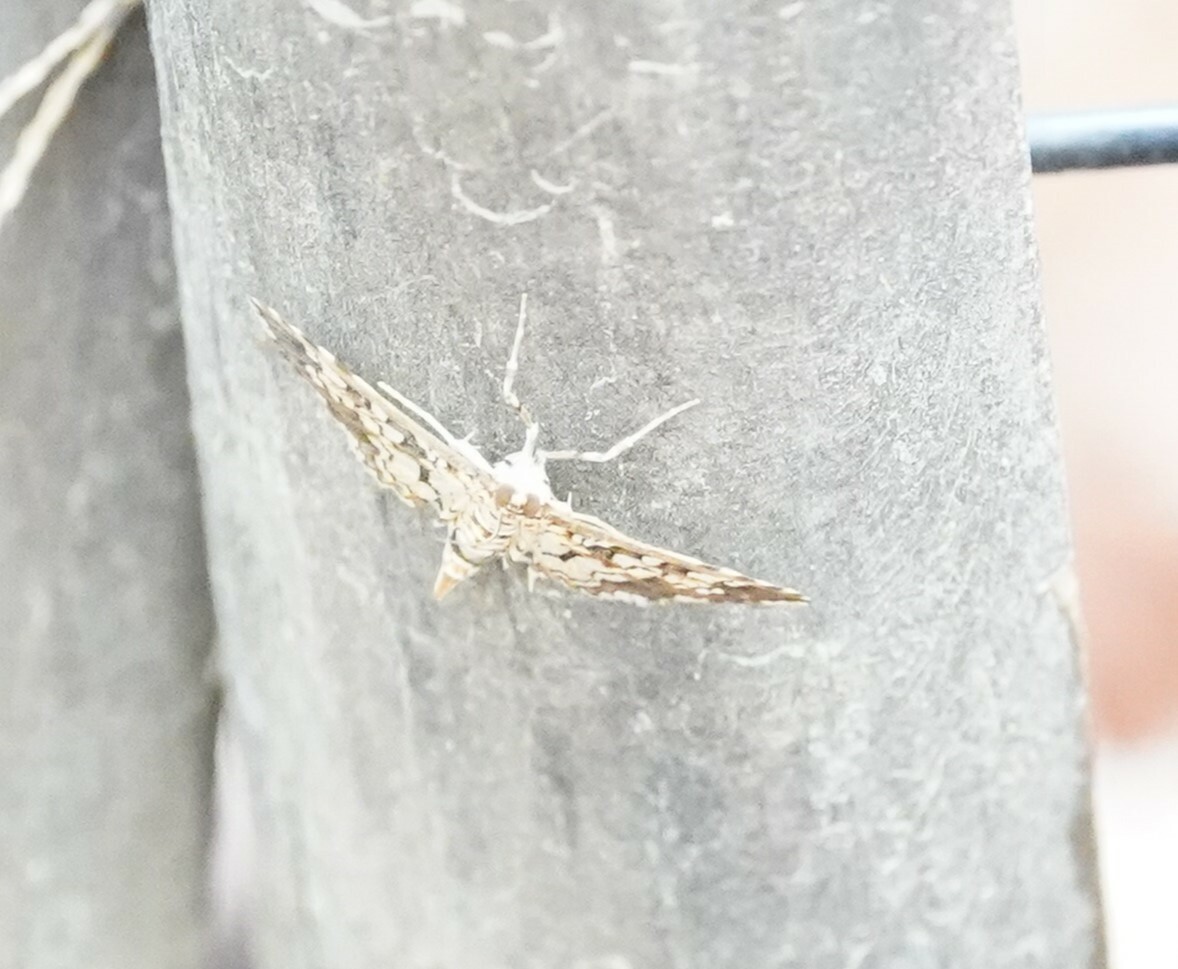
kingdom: Animalia
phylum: Arthropoda
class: Insecta
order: Lepidoptera
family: Crambidae
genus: Samea
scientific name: Samea ecclesialis
